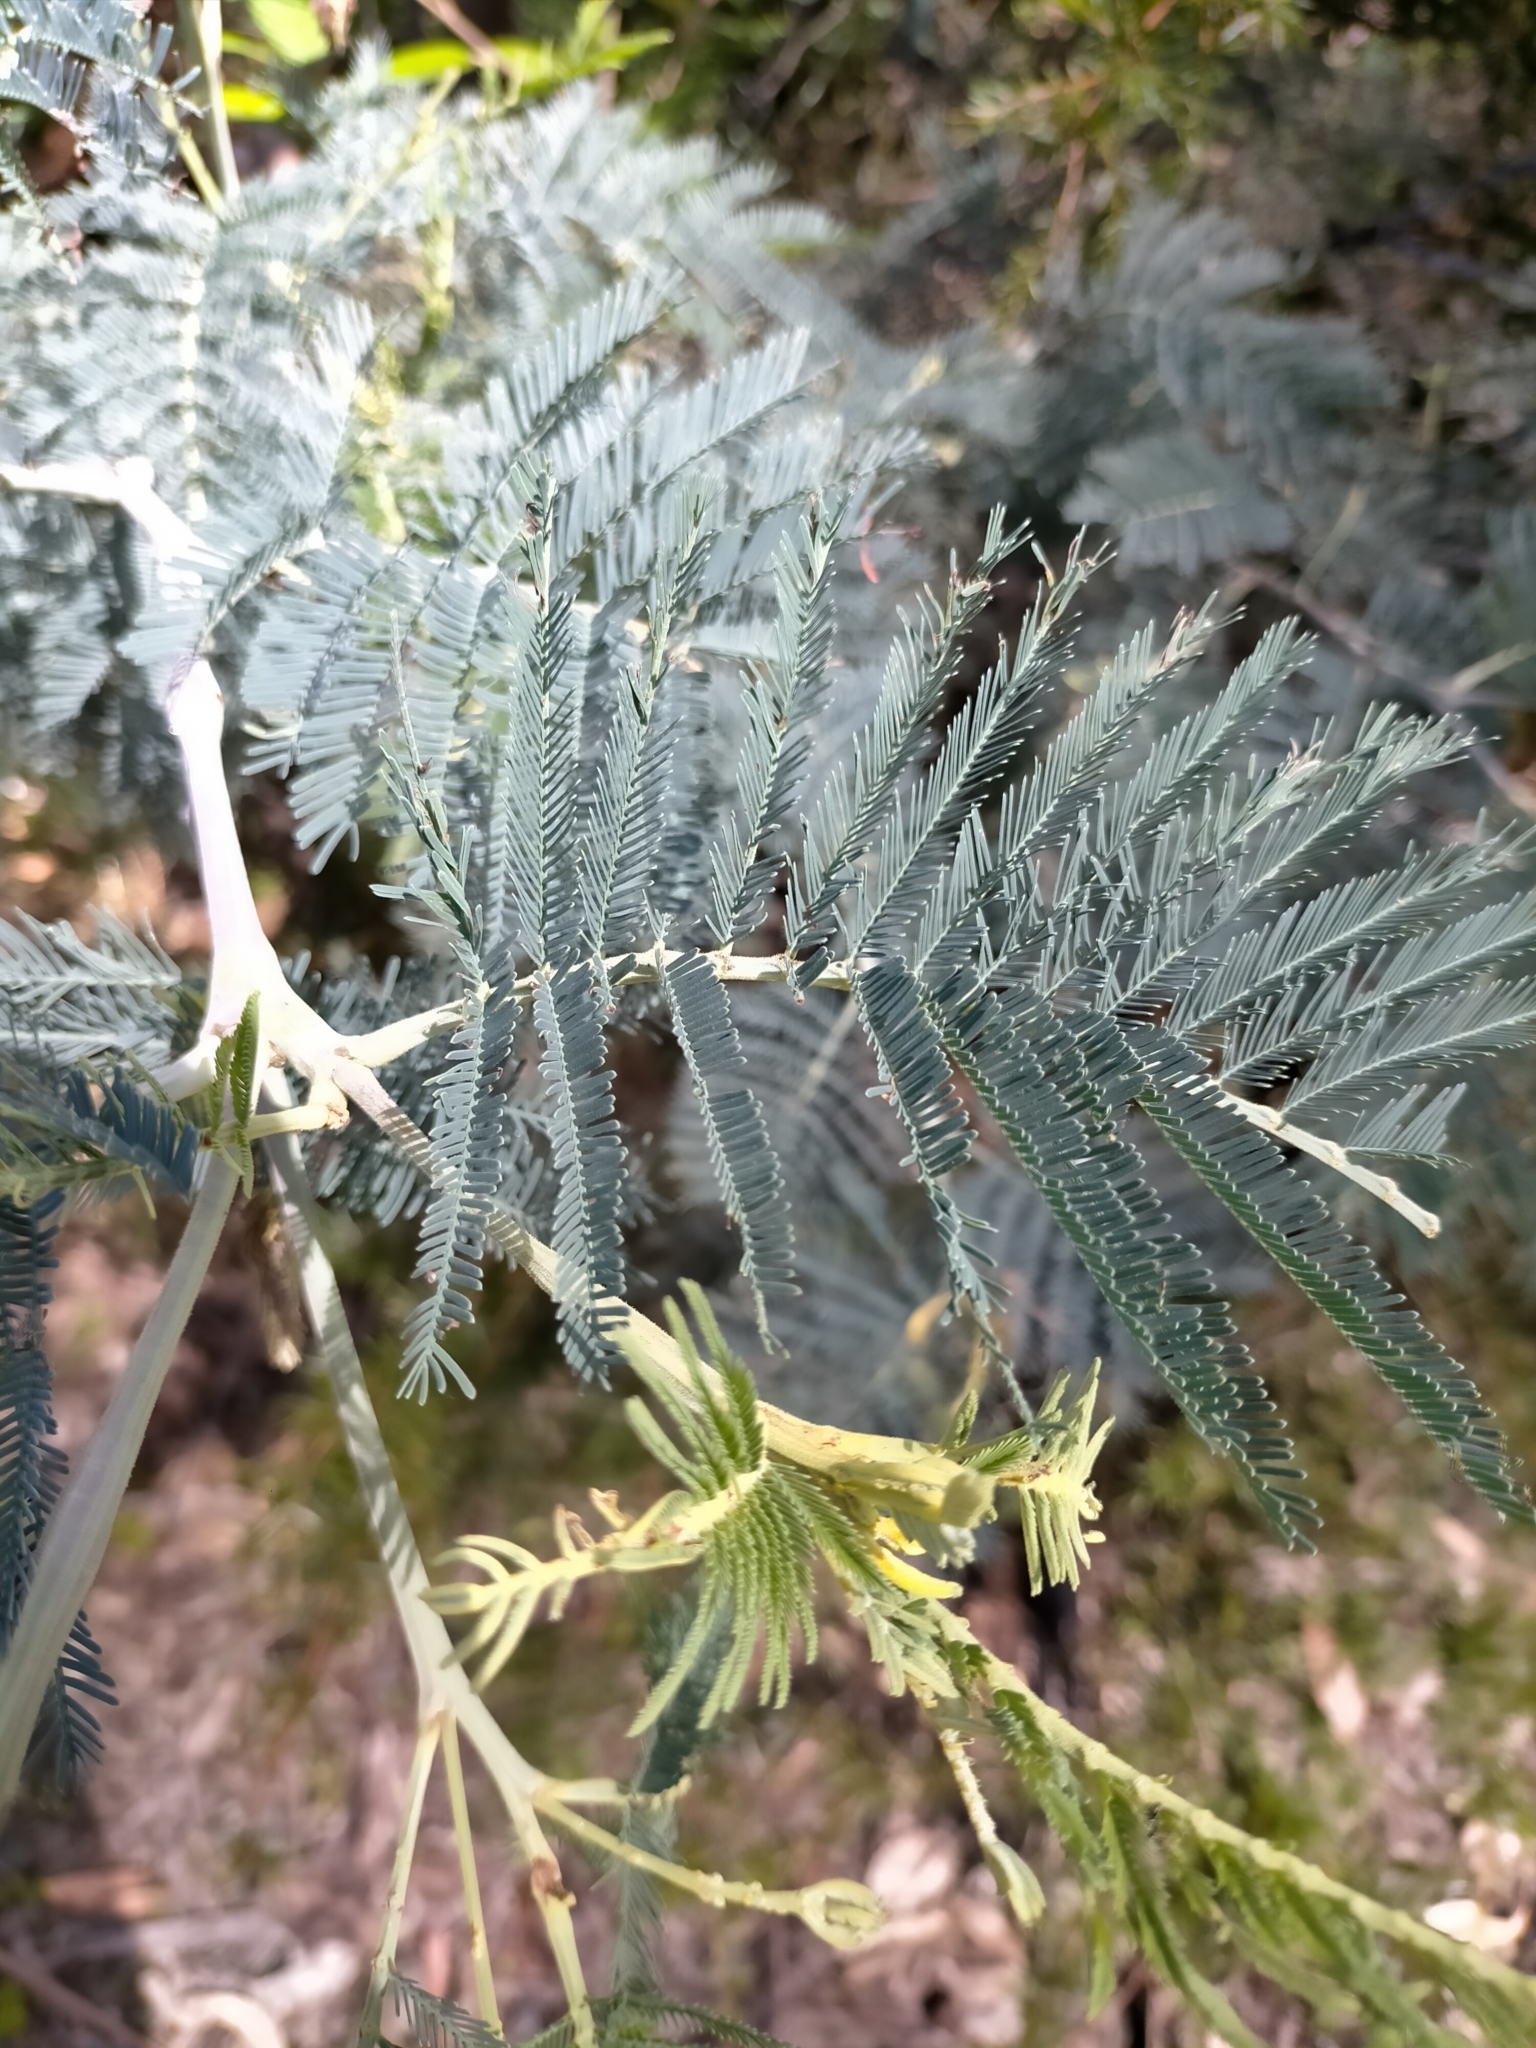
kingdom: Plantae
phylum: Tracheophyta
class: Magnoliopsida
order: Fabales
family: Fabaceae
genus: Acacia
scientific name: Acacia dealbata
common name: Silver wattle
